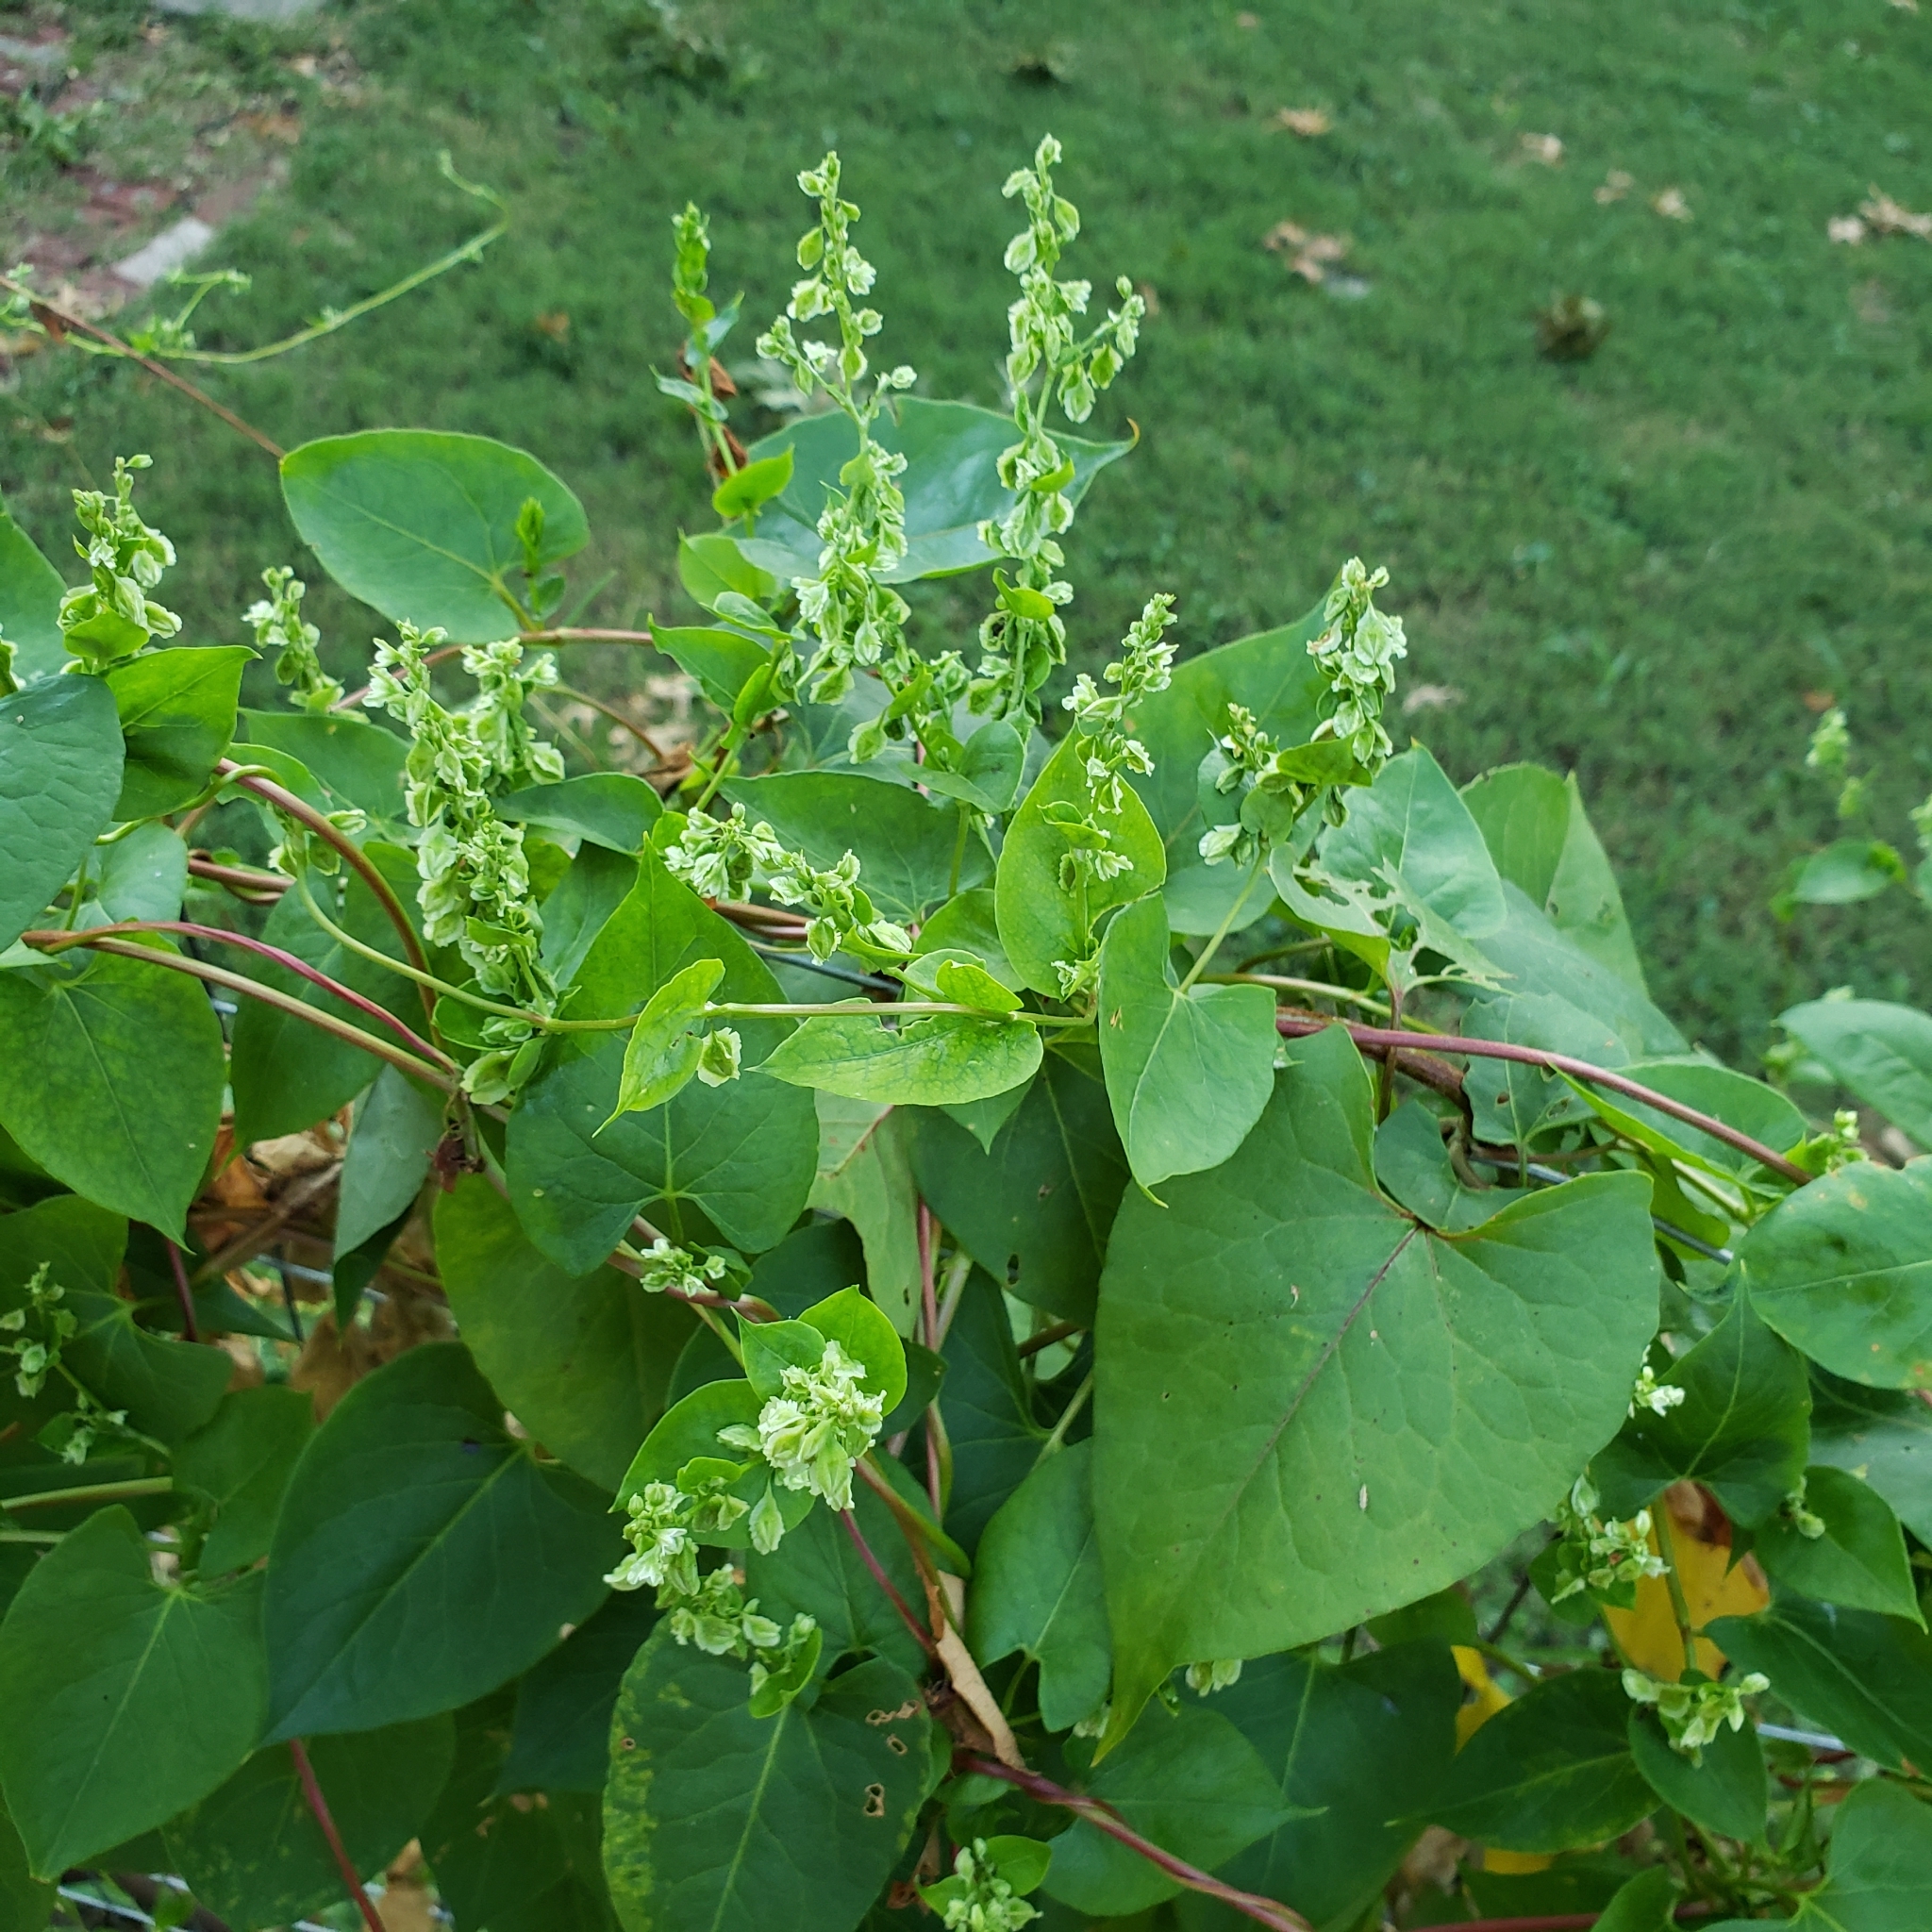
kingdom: Plantae
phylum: Tracheophyta
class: Magnoliopsida
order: Caryophyllales
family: Polygonaceae
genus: Fallopia
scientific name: Fallopia scandens
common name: Climbing false buckwheat
